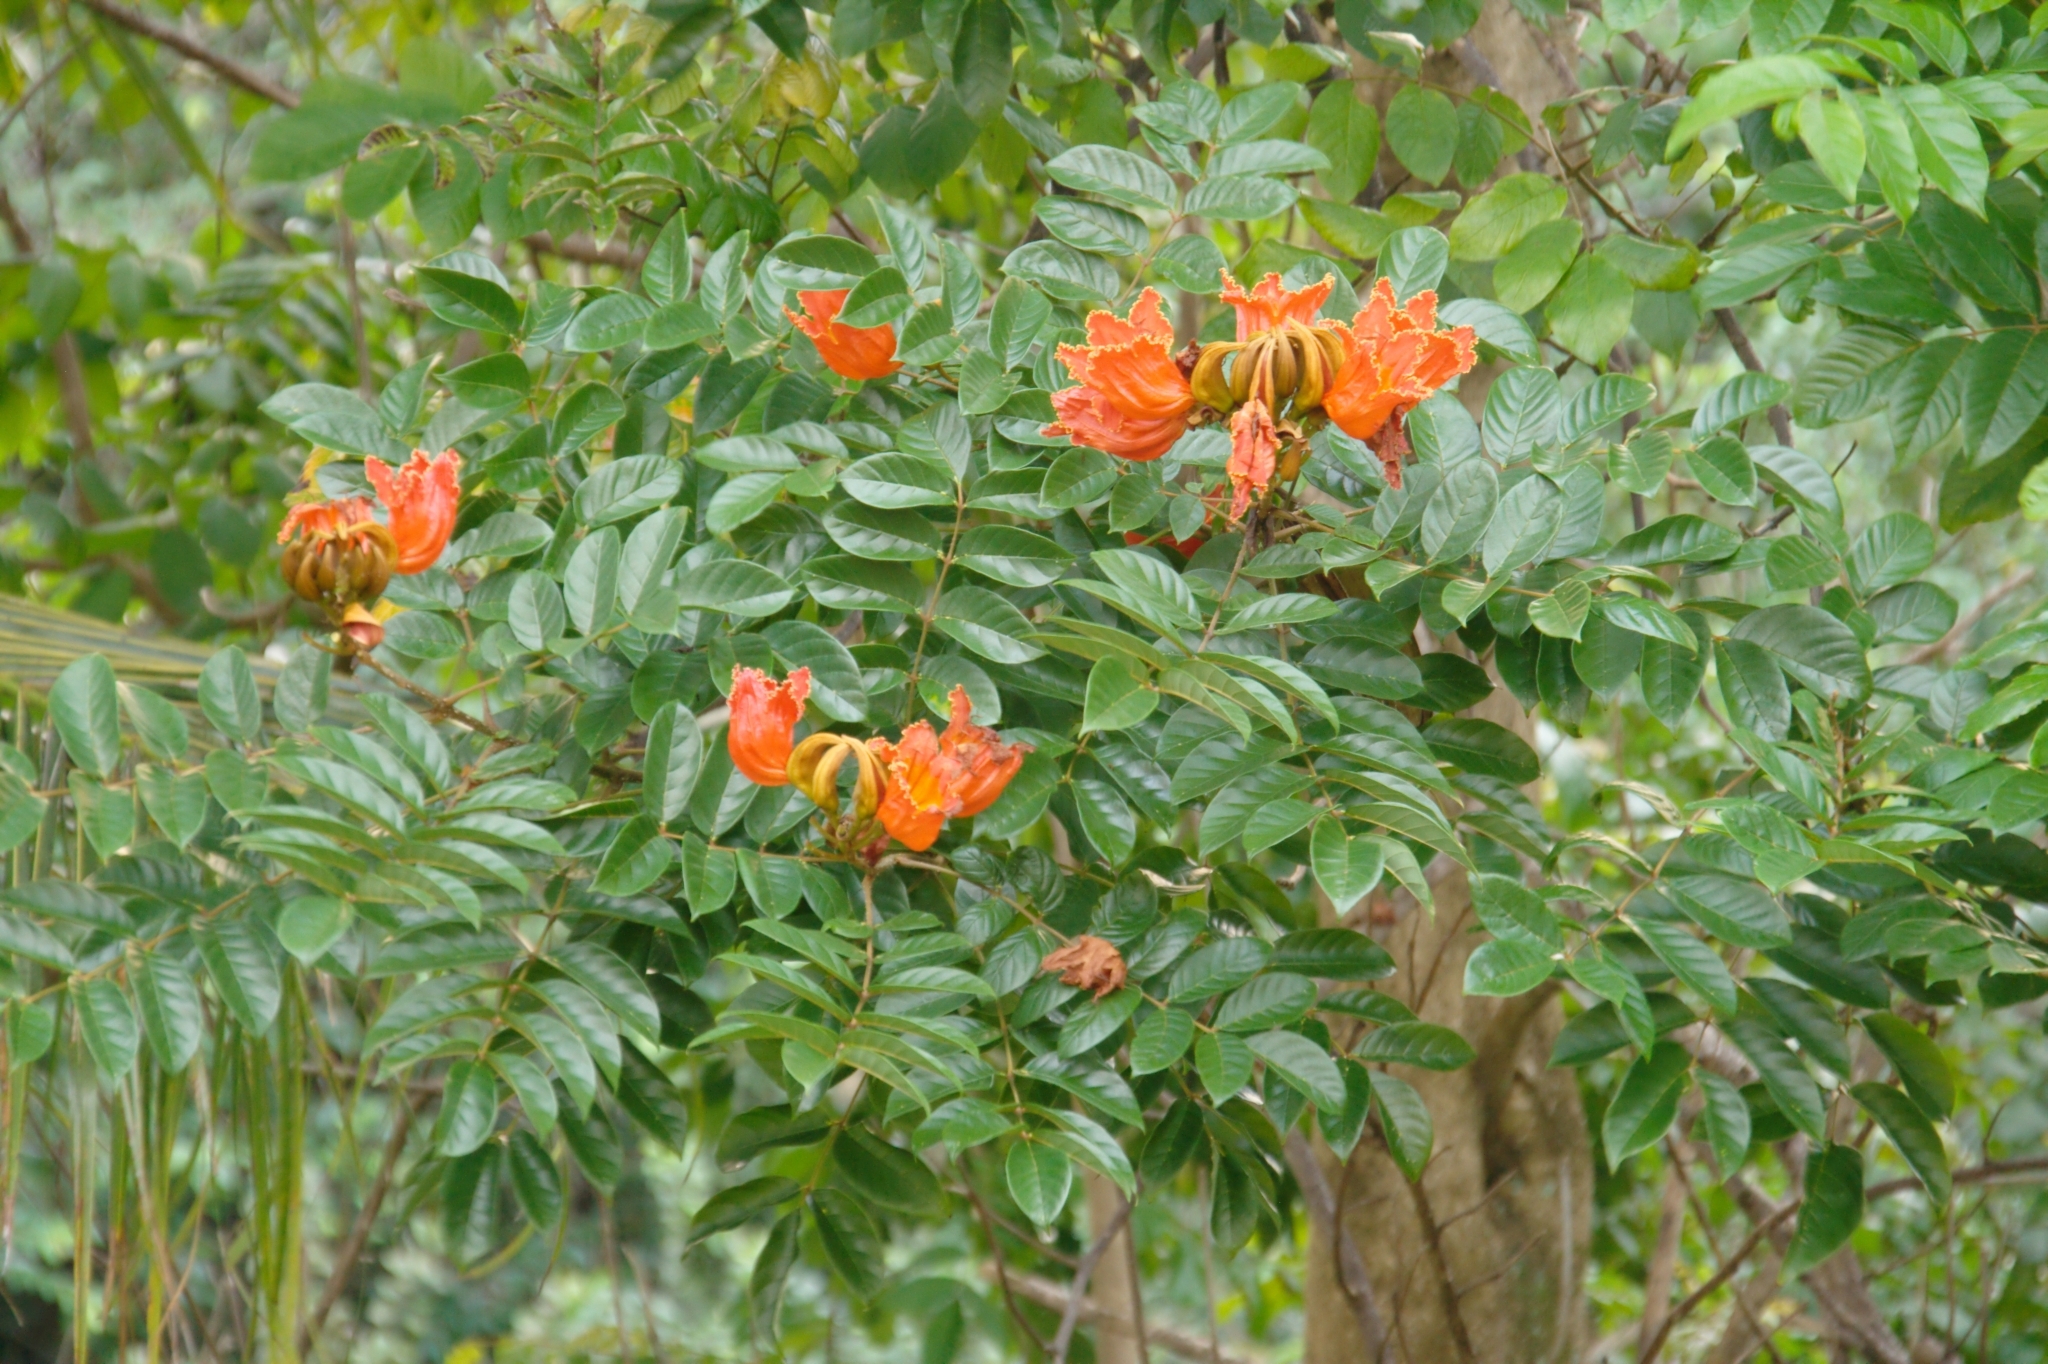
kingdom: Plantae
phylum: Tracheophyta
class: Magnoliopsida
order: Lamiales
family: Bignoniaceae
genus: Spathodea
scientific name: Spathodea campanulata
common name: African tuliptree
